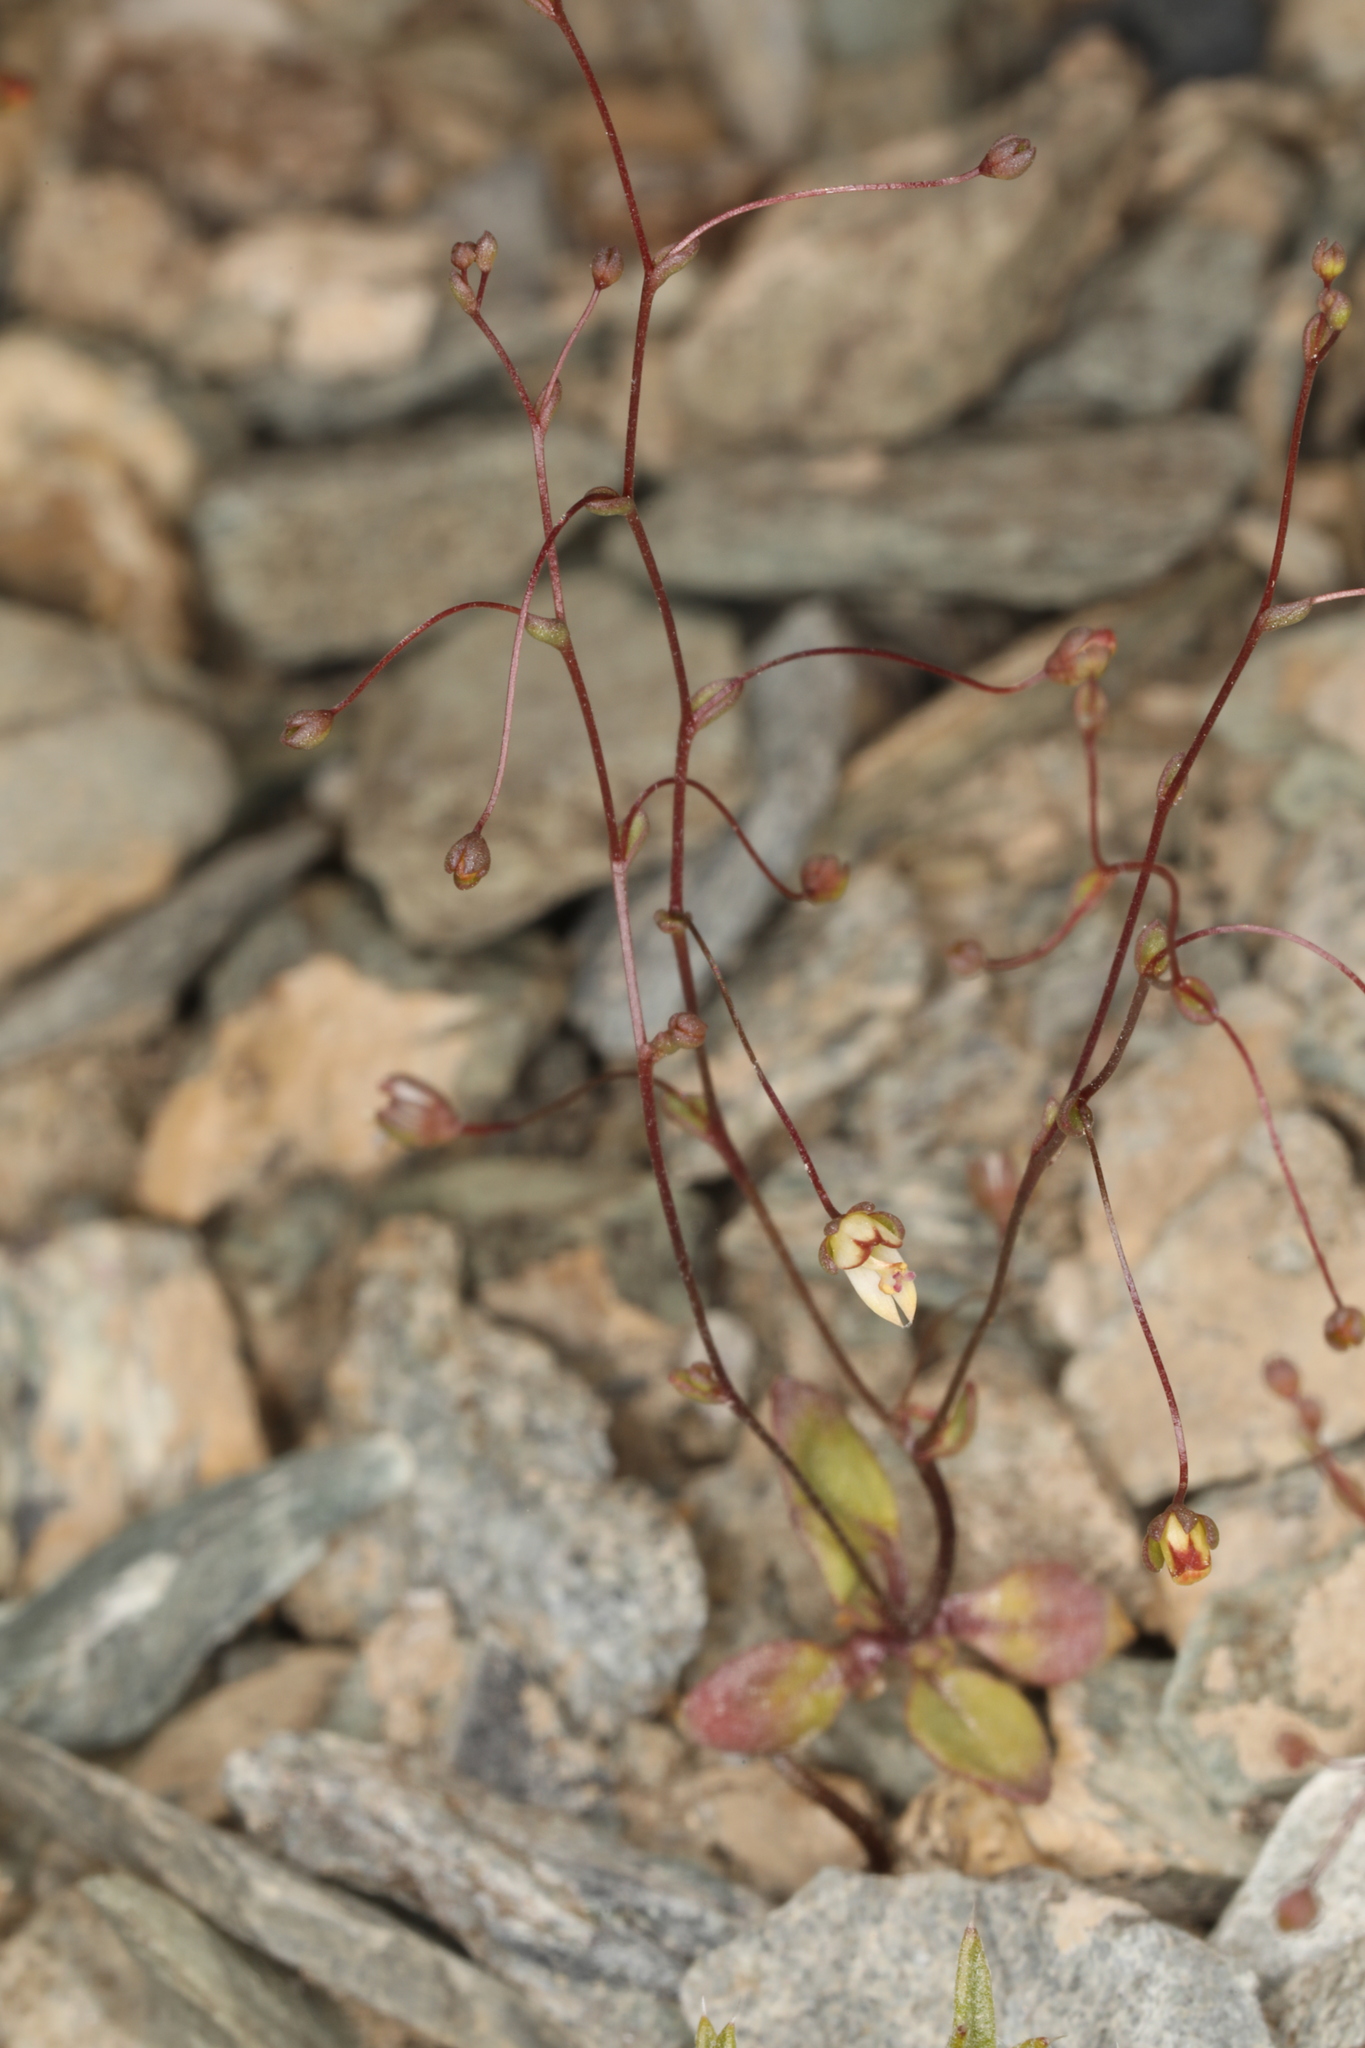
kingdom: Plantae
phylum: Tracheophyta
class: Magnoliopsida
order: Asterales
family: Campanulaceae
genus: Nemacladus
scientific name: Nemacladus morefieldii
